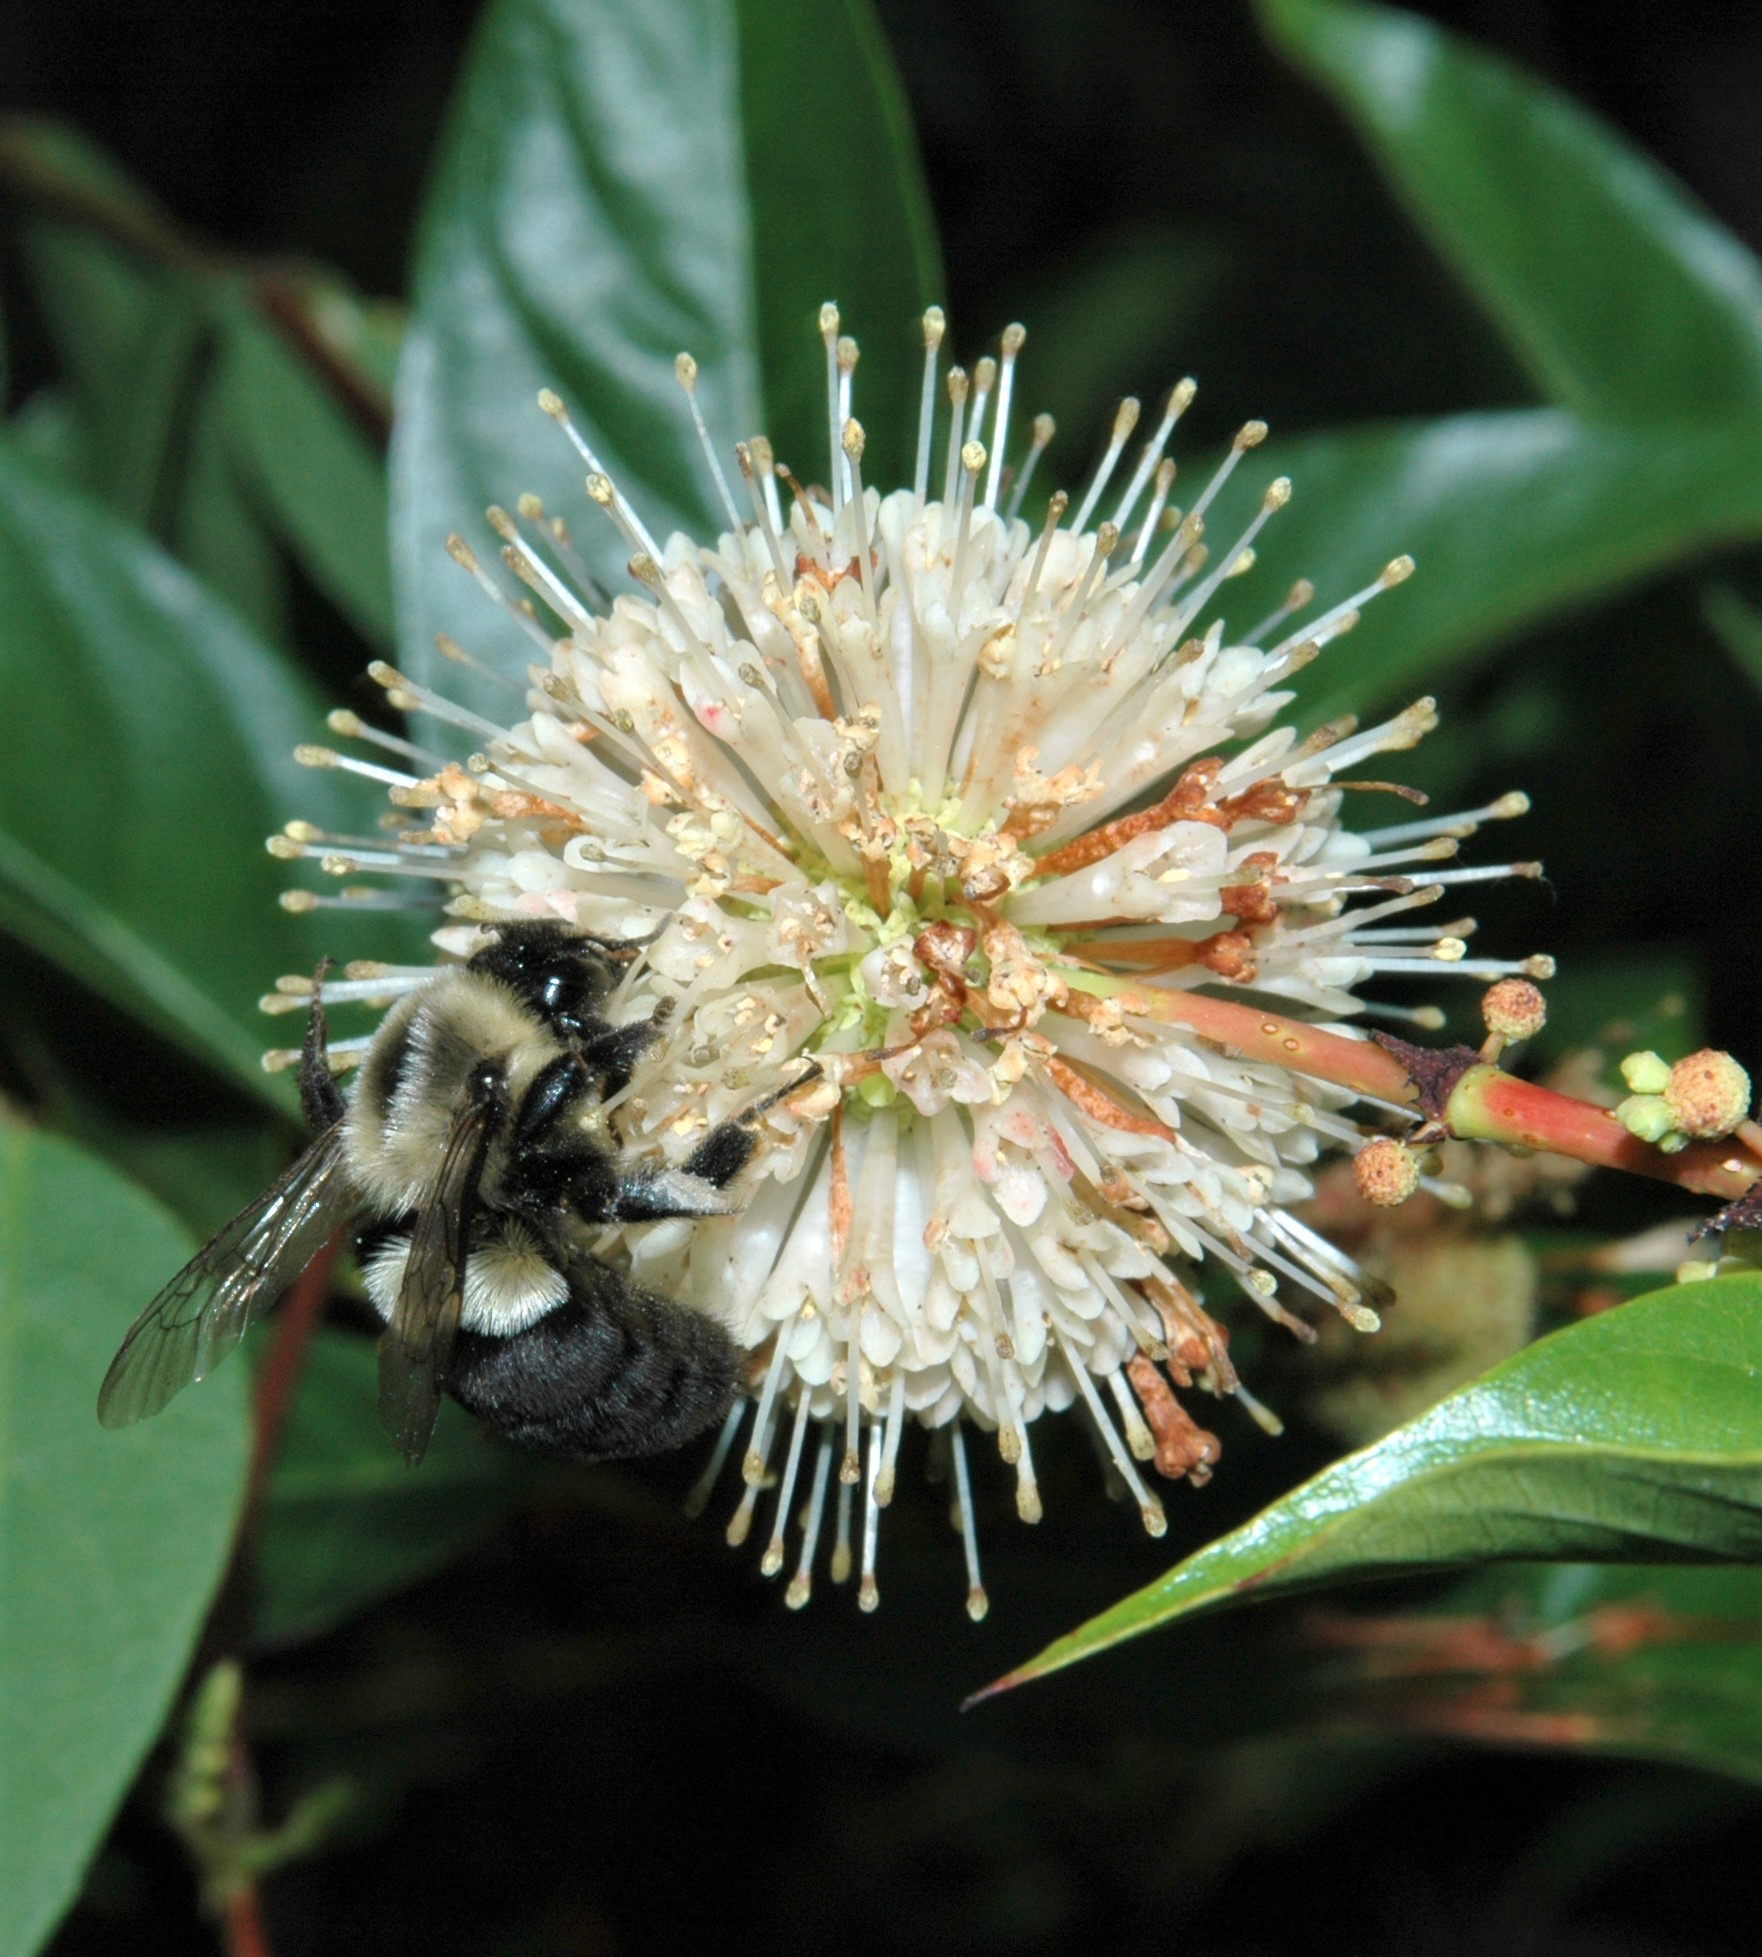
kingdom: Animalia
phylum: Arthropoda
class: Insecta
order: Hymenoptera
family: Apidae
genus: Bombus
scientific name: Bombus impatiens
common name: Common eastern bumble bee
